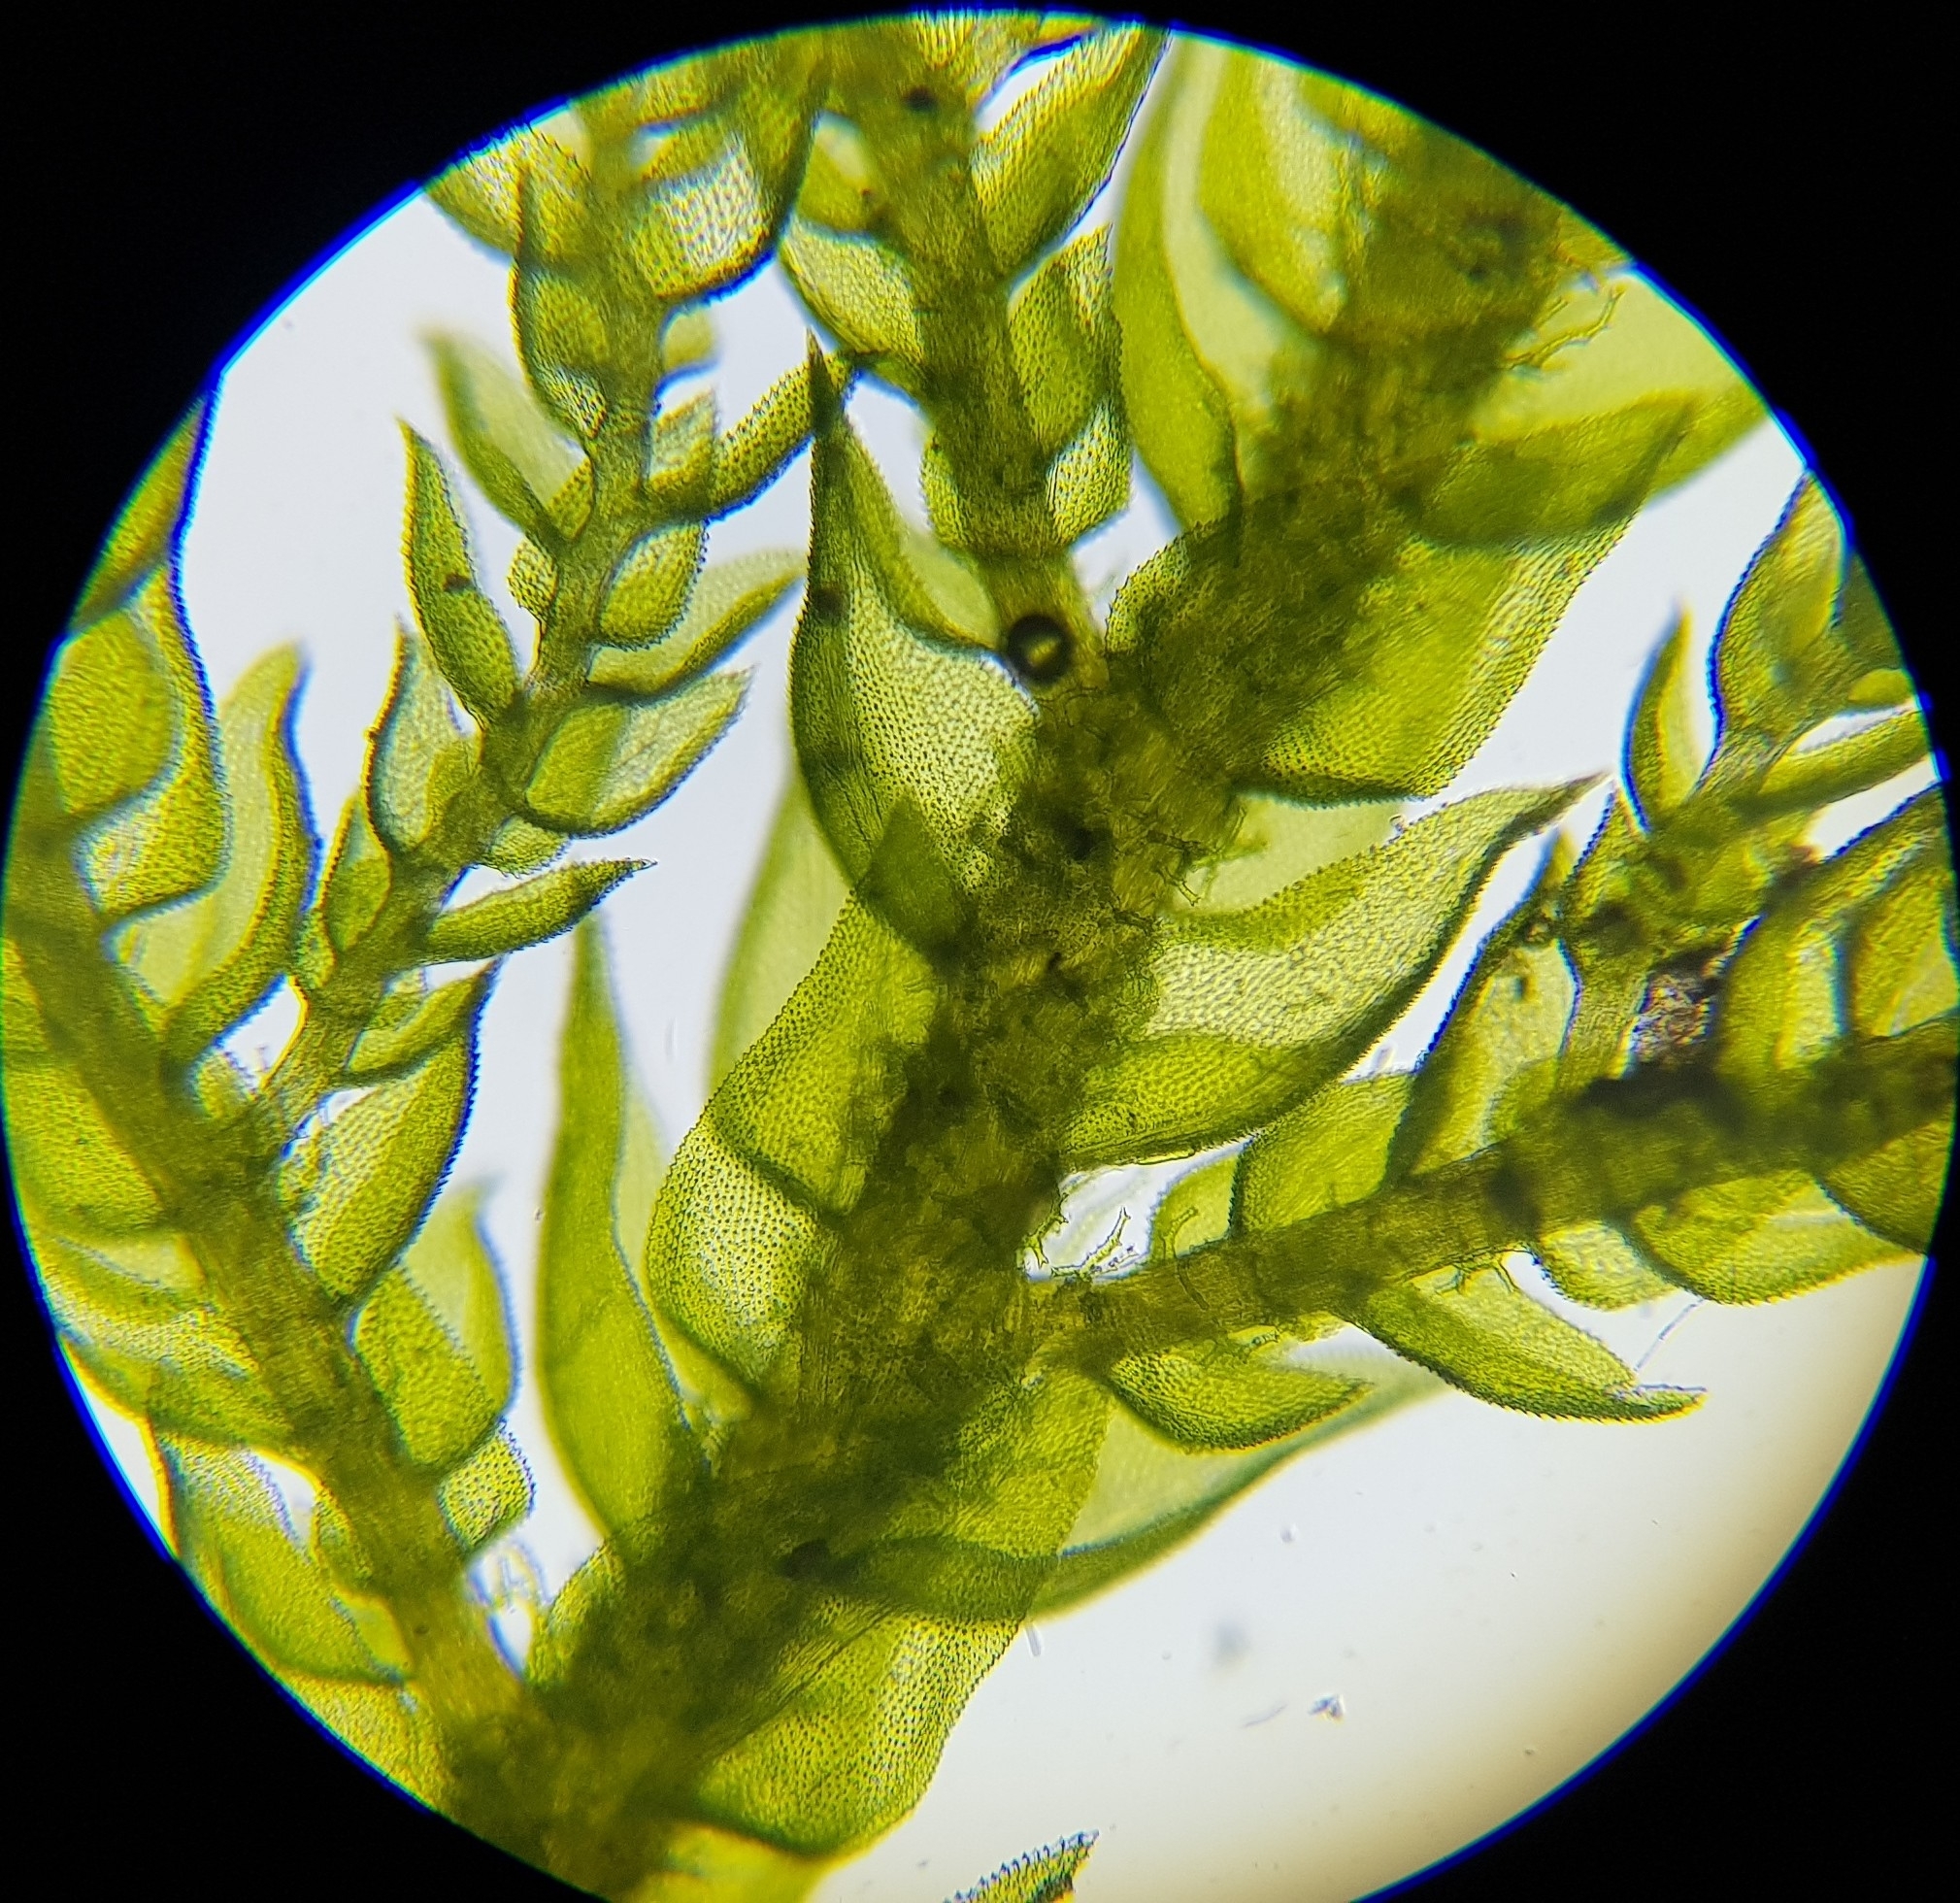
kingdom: Plantae
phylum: Bryophyta
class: Bryopsida
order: Hypnales
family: Thuidiaceae
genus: Thuidium
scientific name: Thuidium tamariscinum
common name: Common tamarisk-moss
